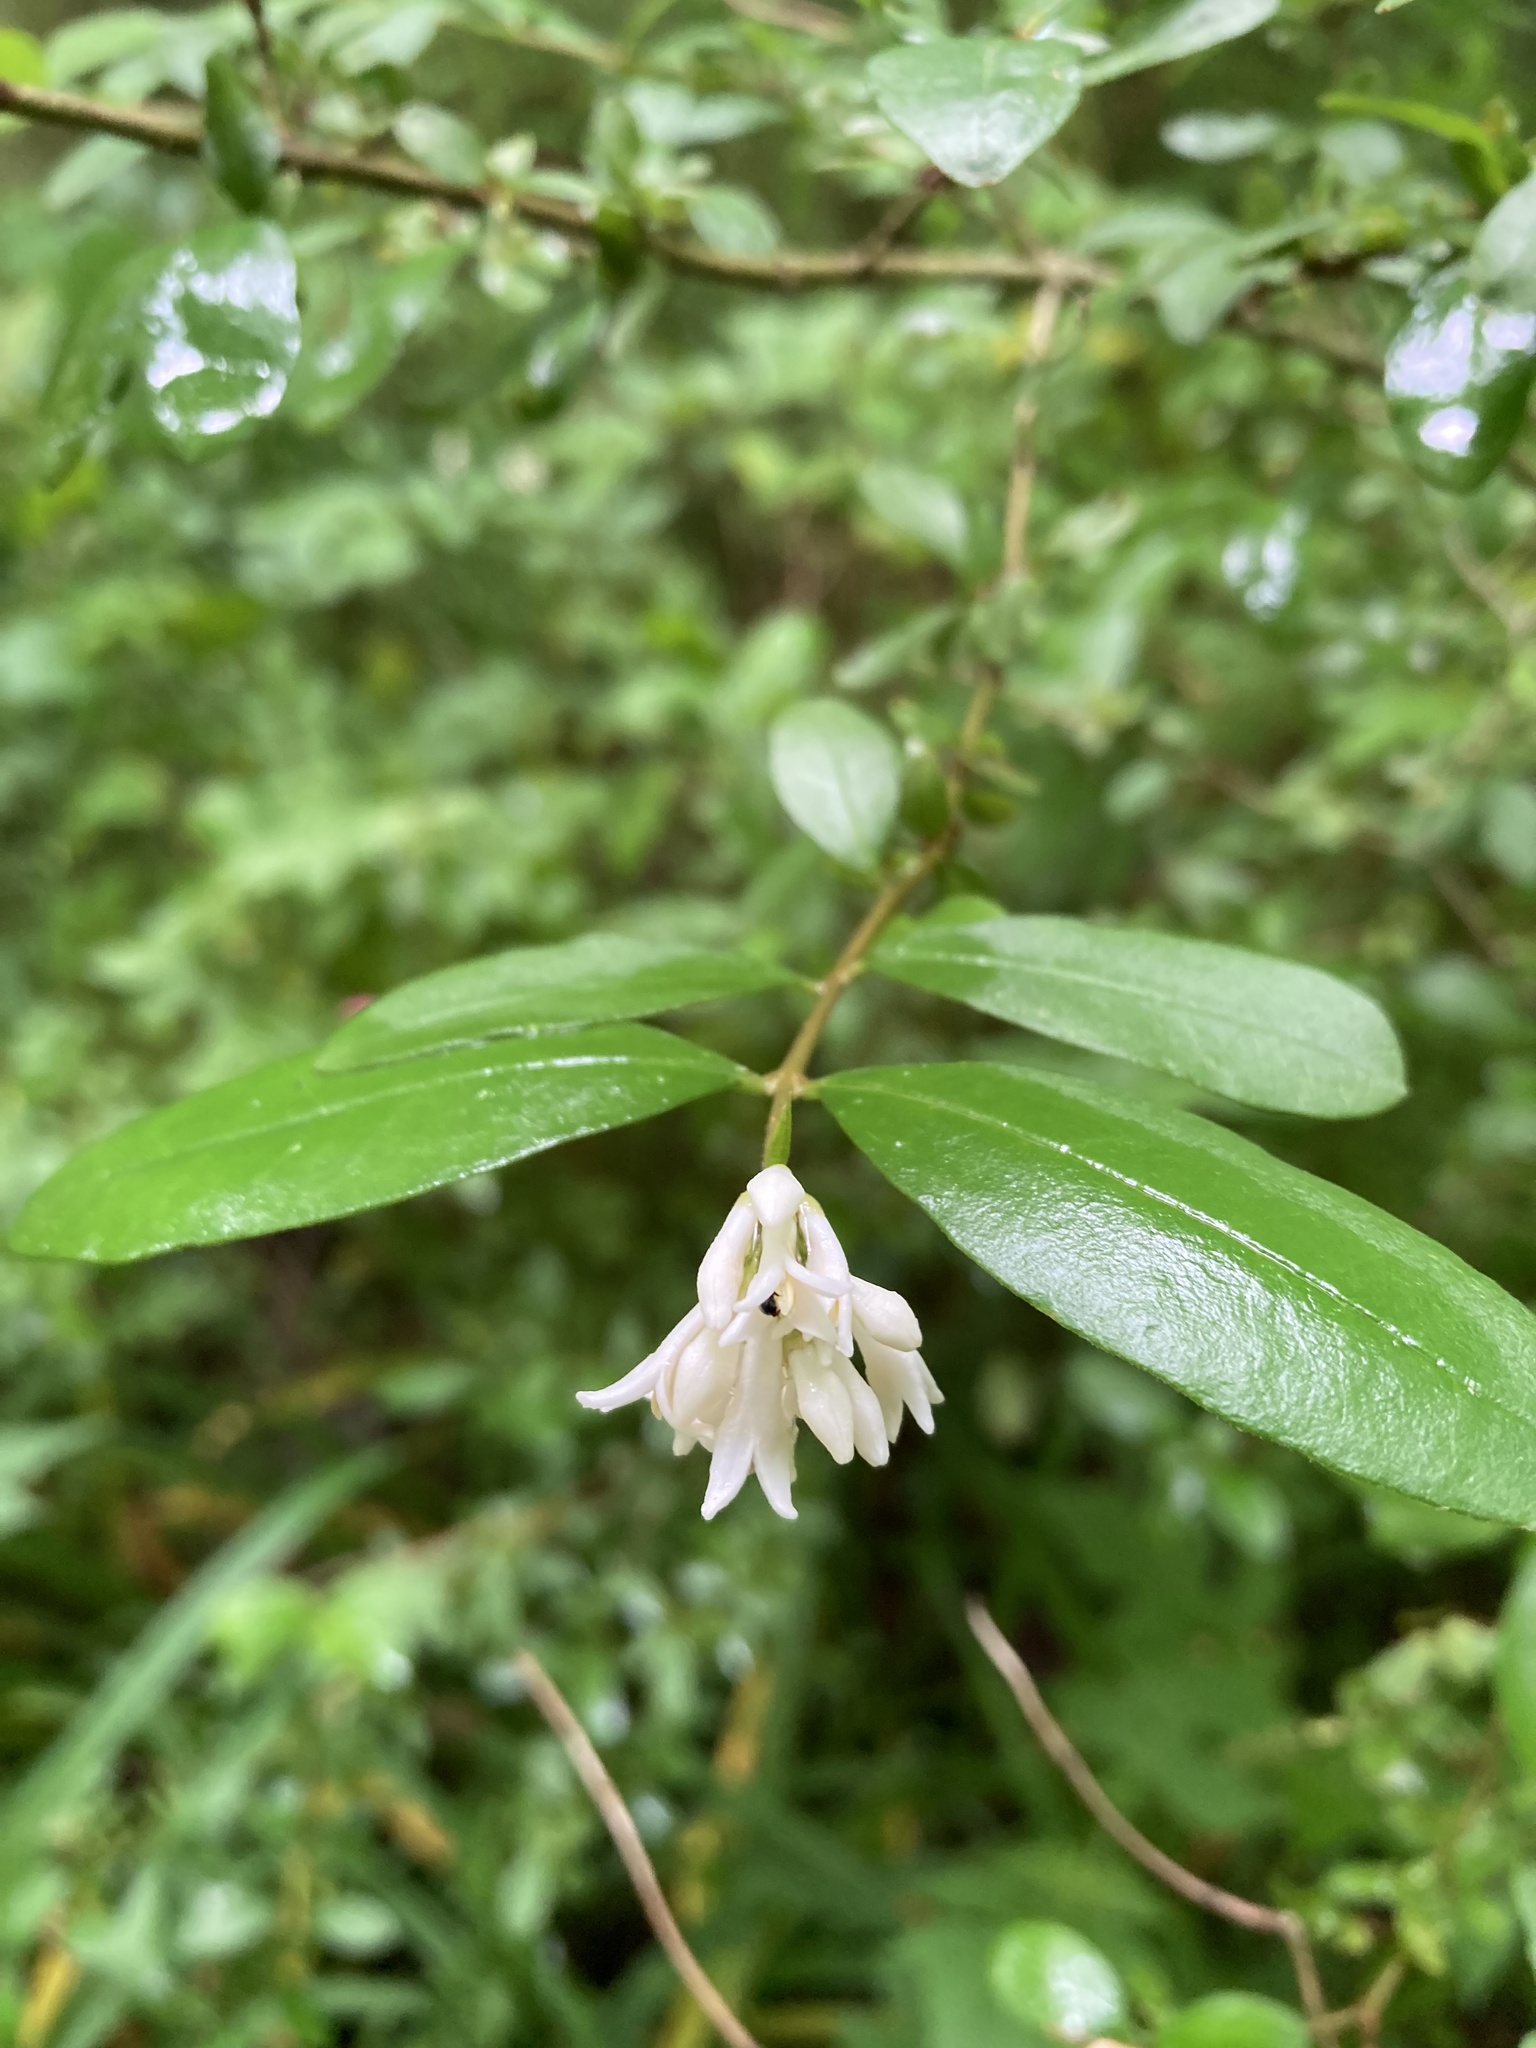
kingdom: Plantae
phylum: Tracheophyta
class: Magnoliopsida
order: Lamiales
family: Oleaceae
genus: Ligustrum
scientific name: Ligustrum obtusifolium
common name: Border privet
